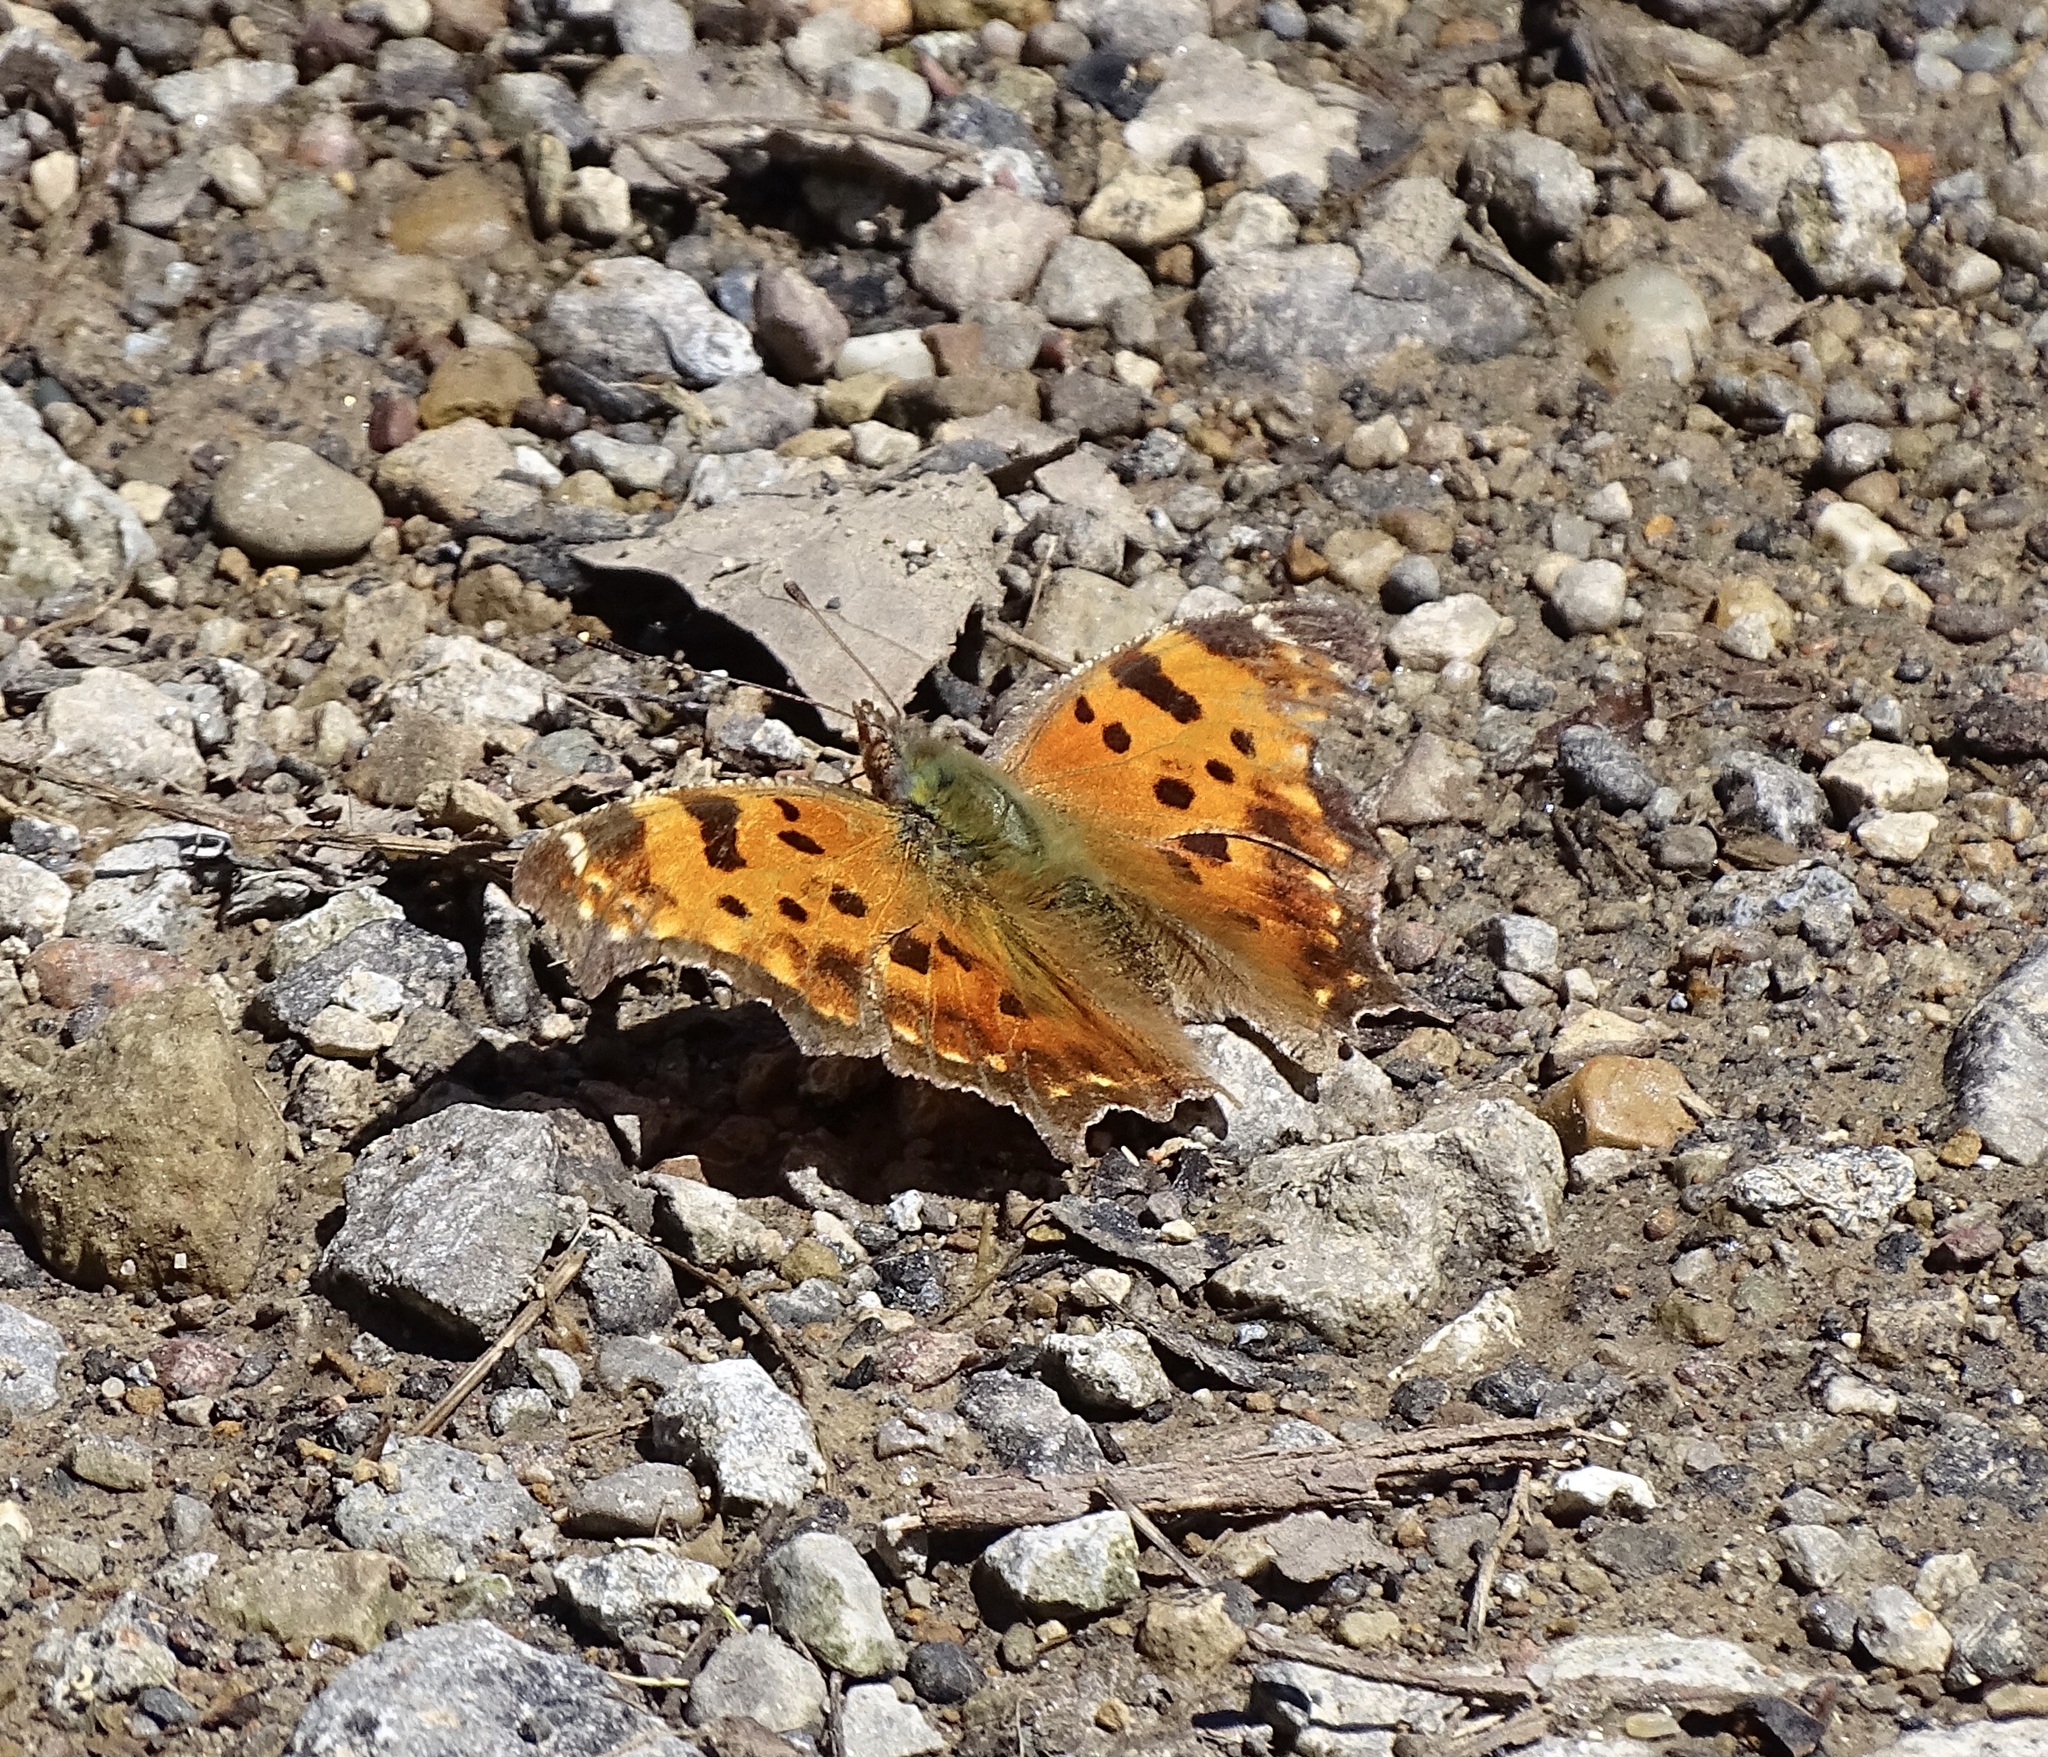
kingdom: Animalia
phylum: Arthropoda
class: Insecta
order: Lepidoptera
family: Nymphalidae
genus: Polygonia
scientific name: Polygonia comma
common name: Eastern comma
